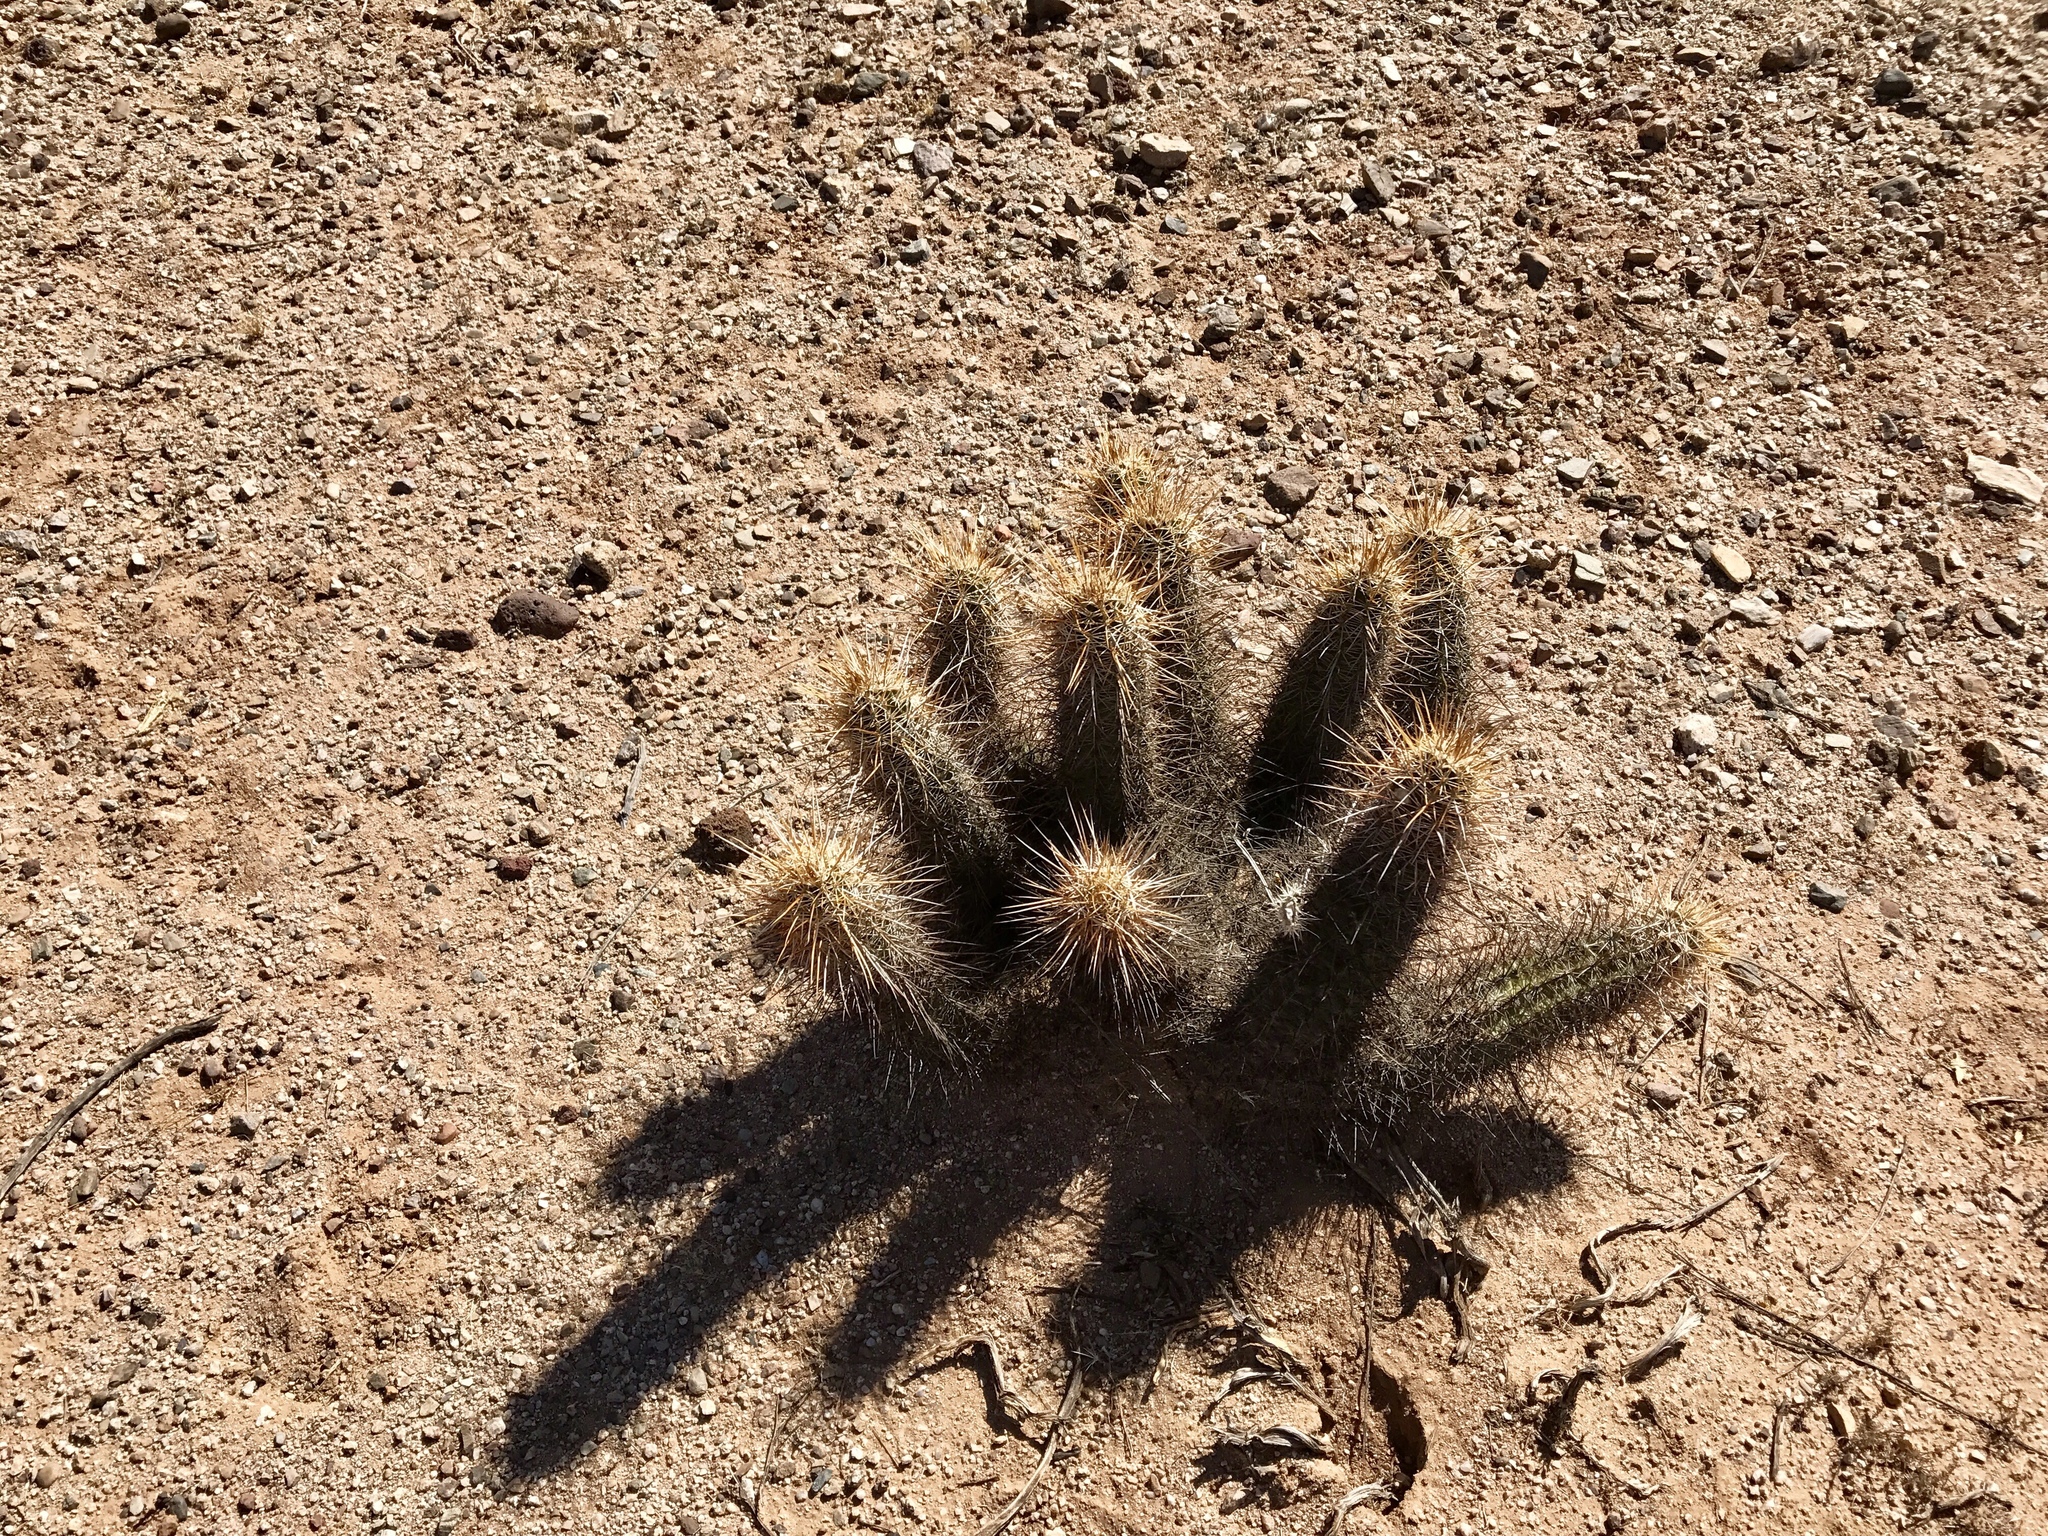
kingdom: Plantae
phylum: Tracheophyta
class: Magnoliopsida
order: Caryophyllales
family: Cactaceae
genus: Echinocereus
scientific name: Echinocereus engelmannii
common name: Engelmann's hedgehog cactus
